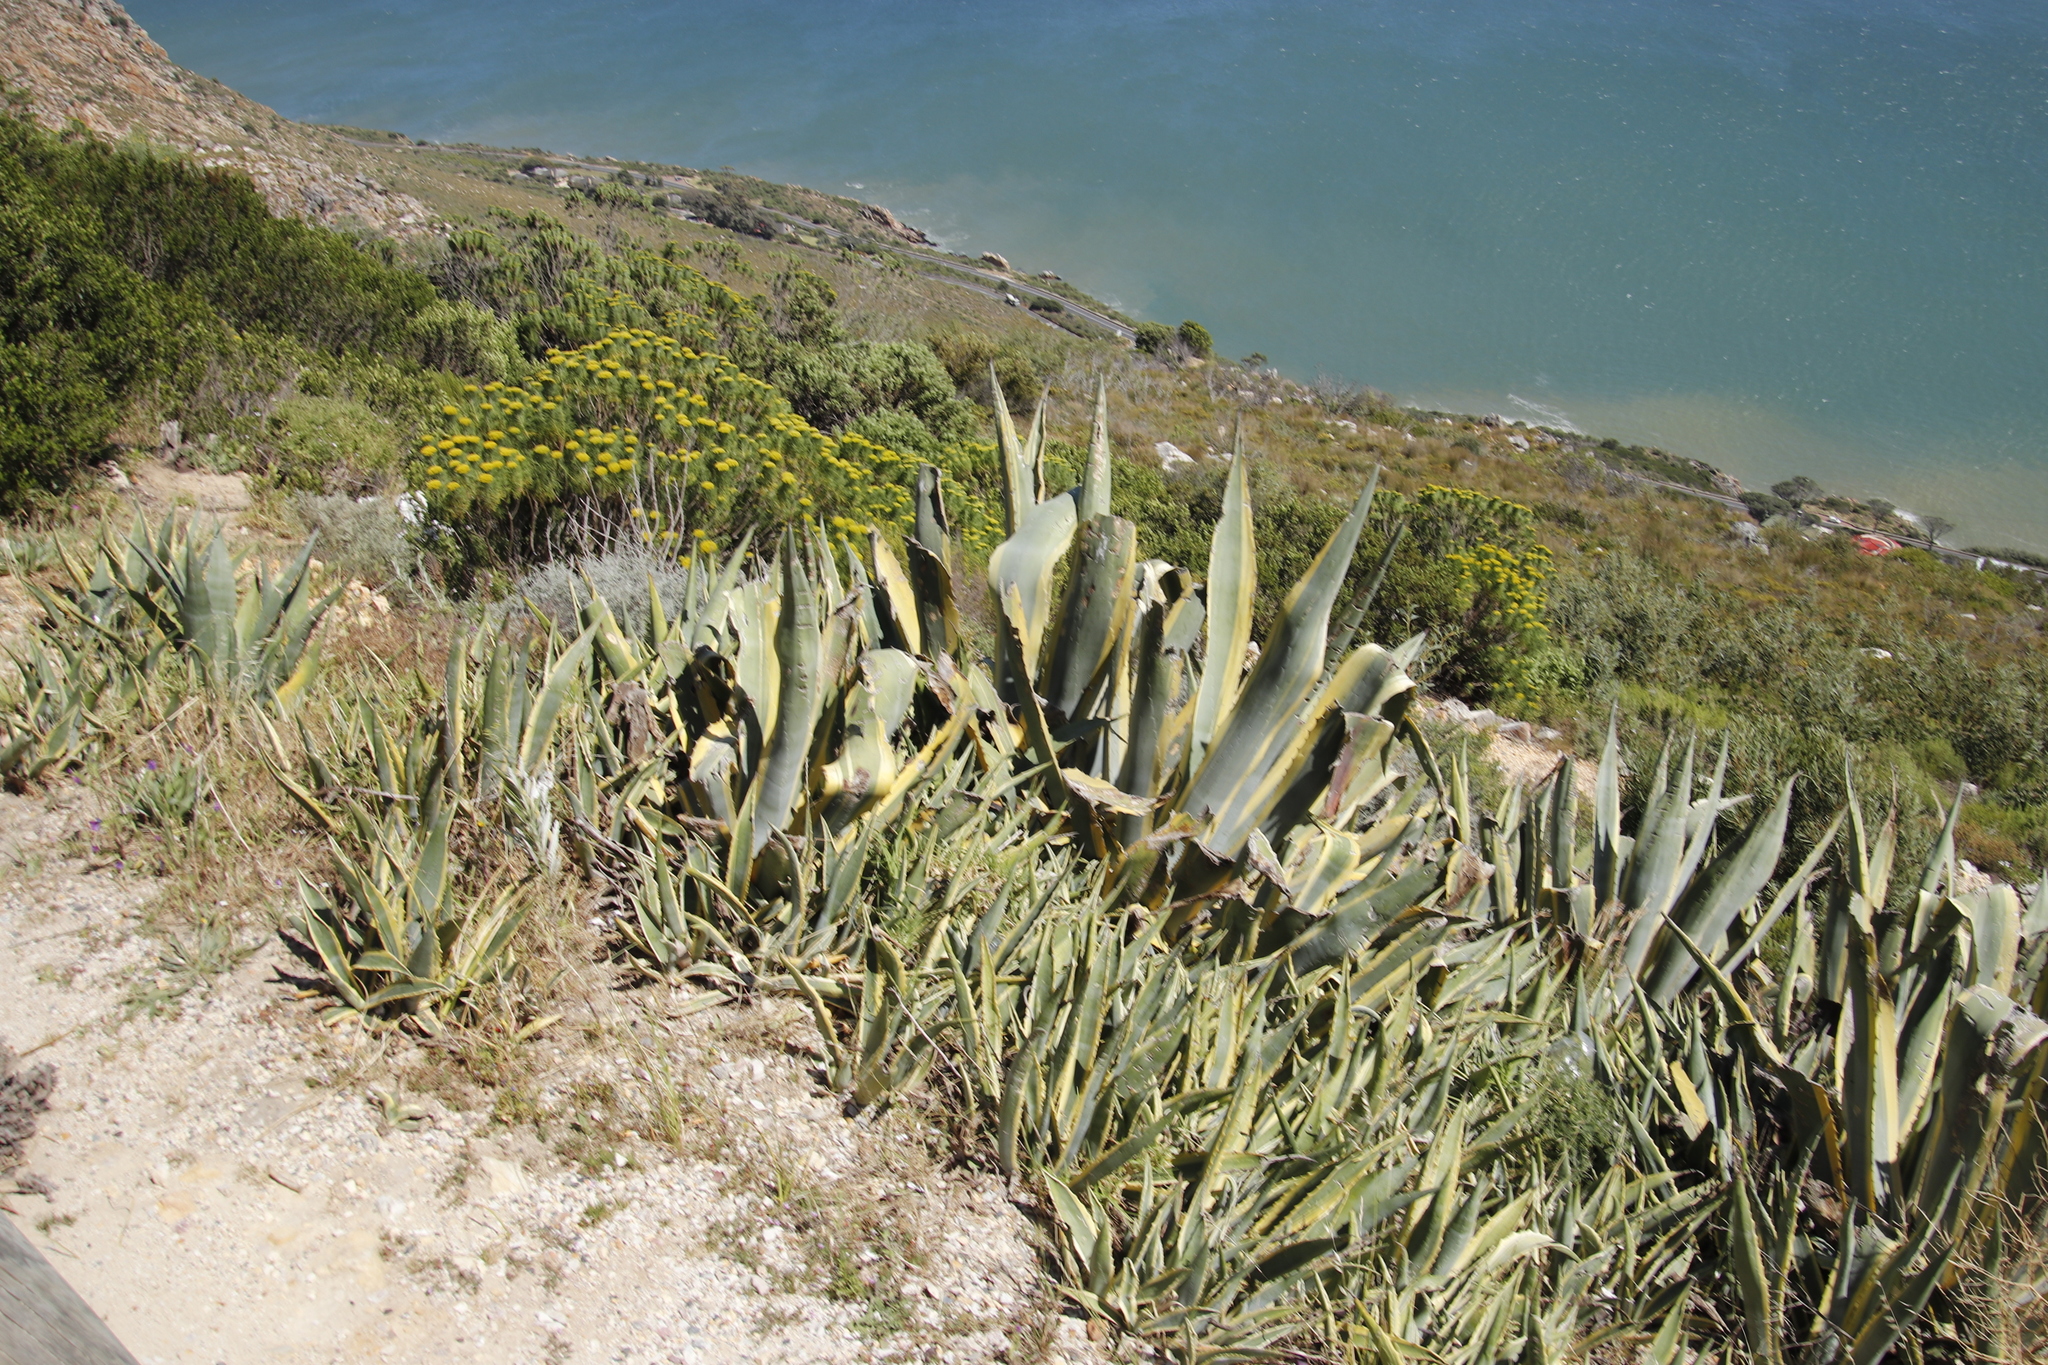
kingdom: Plantae
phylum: Tracheophyta
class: Liliopsida
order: Asparagales
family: Asparagaceae
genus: Agave
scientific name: Agave americana
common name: Centuryplant
